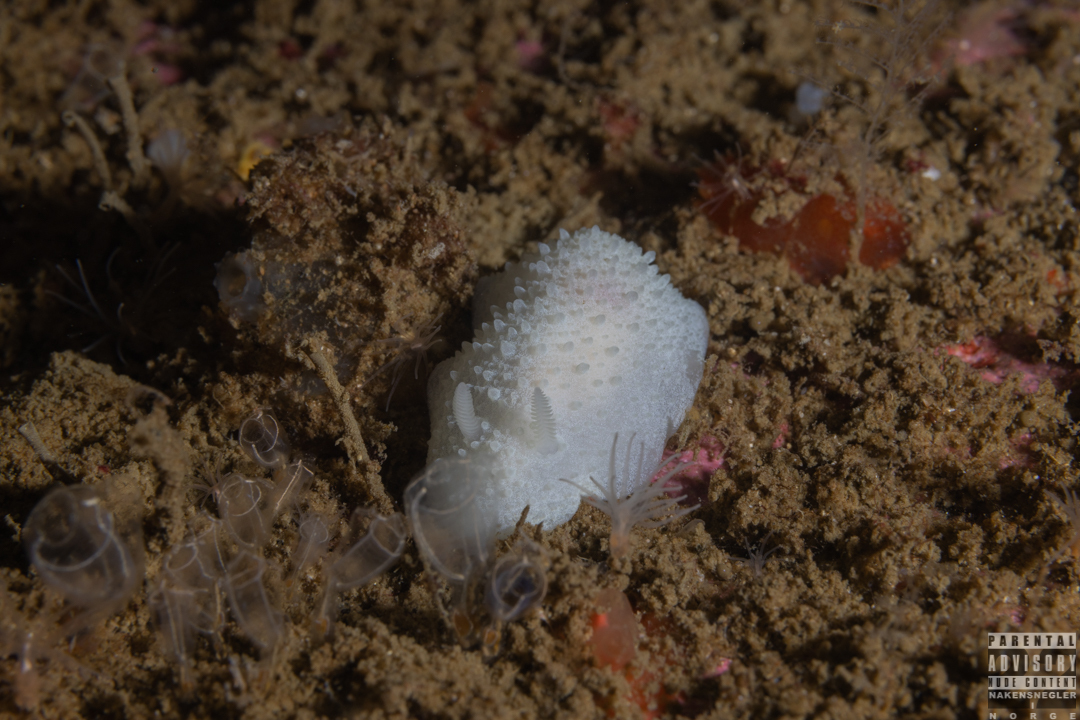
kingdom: Animalia
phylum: Mollusca
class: Gastropoda
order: Nudibranchia
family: Cadlinidae
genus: Aldisa
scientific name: Aldisa zetlandica
